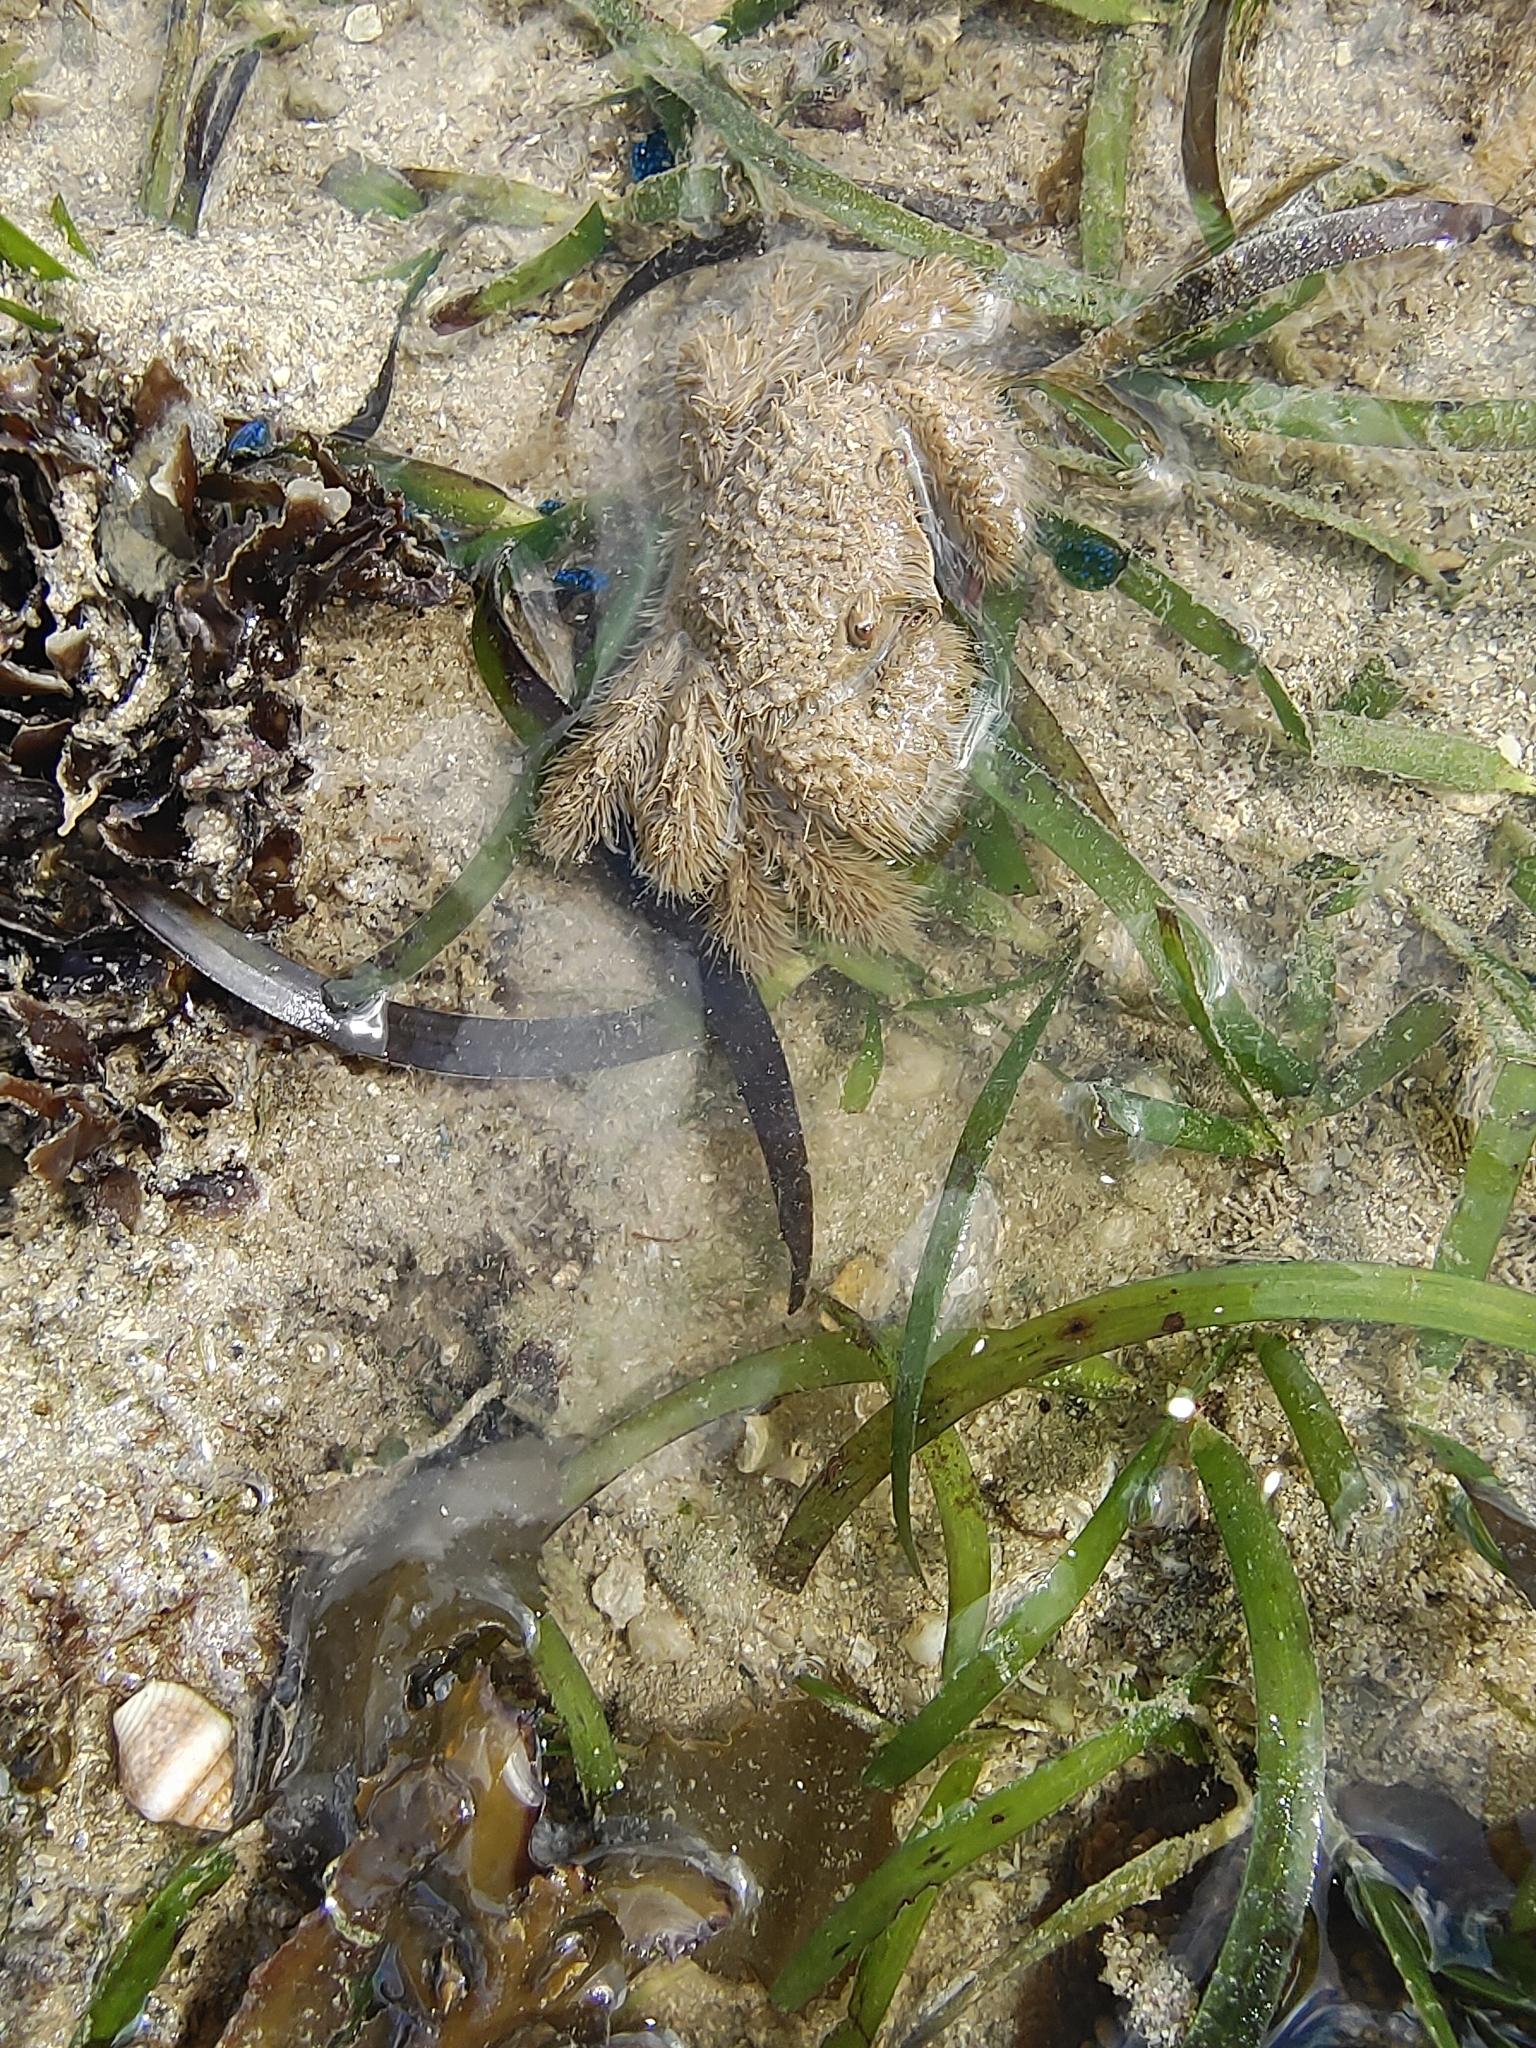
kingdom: Animalia
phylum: Arthropoda
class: Malacostraca
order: Decapoda
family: Pilumnidae
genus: Pilumnus
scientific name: Pilumnus vespertilio
